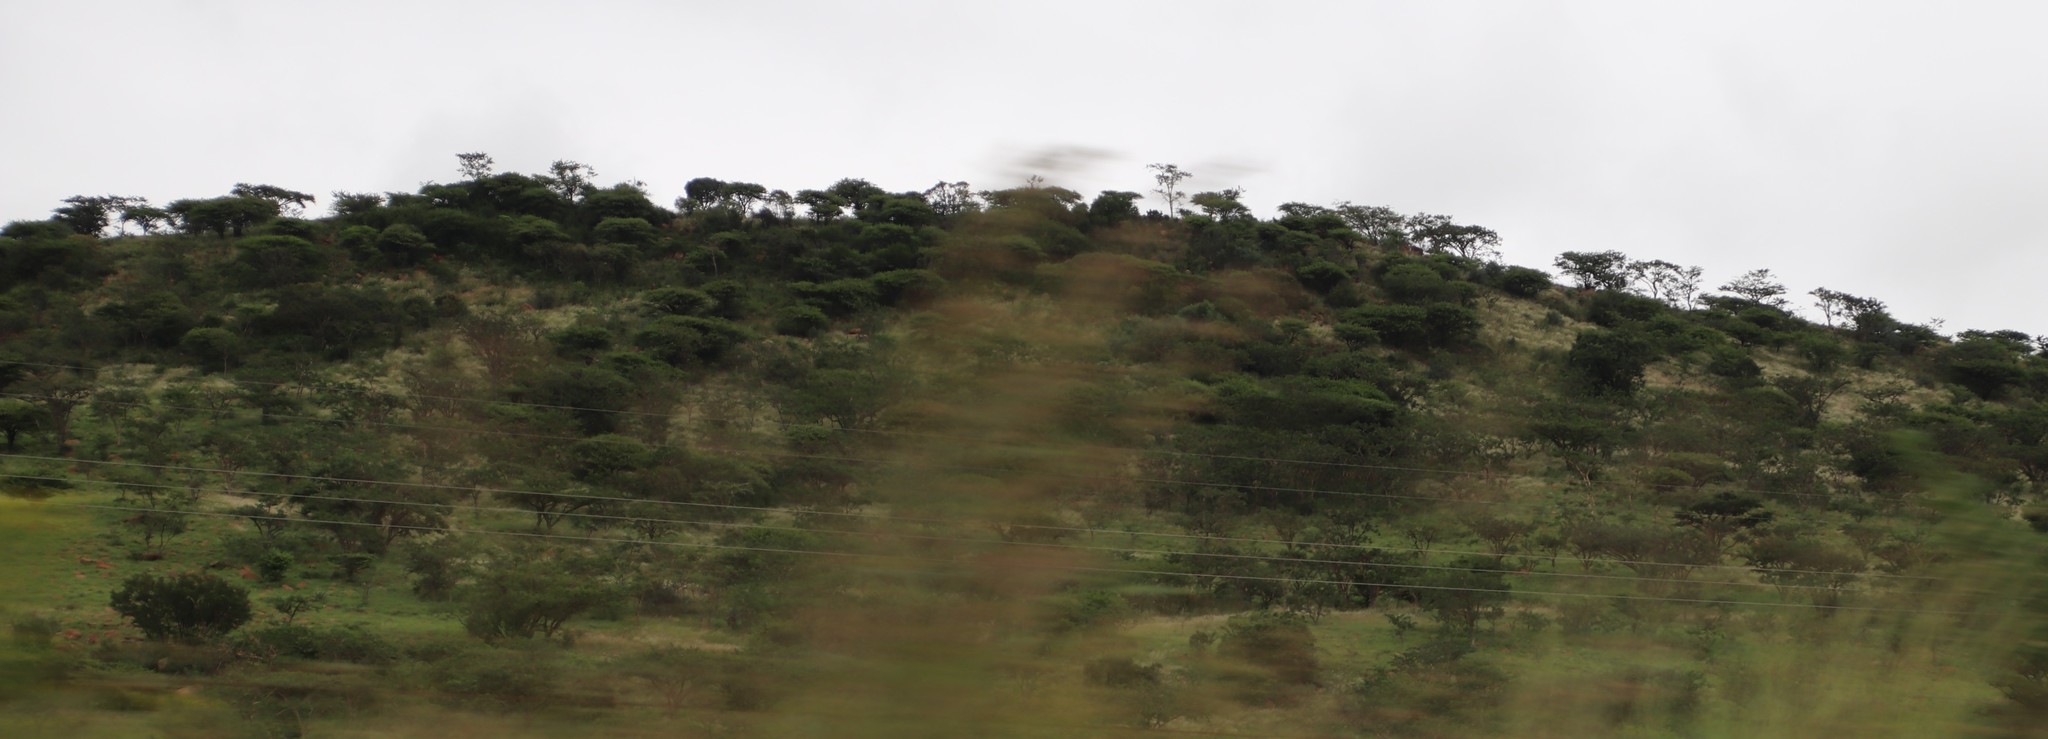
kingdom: Plantae
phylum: Tracheophyta
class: Magnoliopsida
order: Fabales
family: Fabaceae
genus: Vachellia
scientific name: Vachellia sieberiana
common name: Flat-topped thorn
